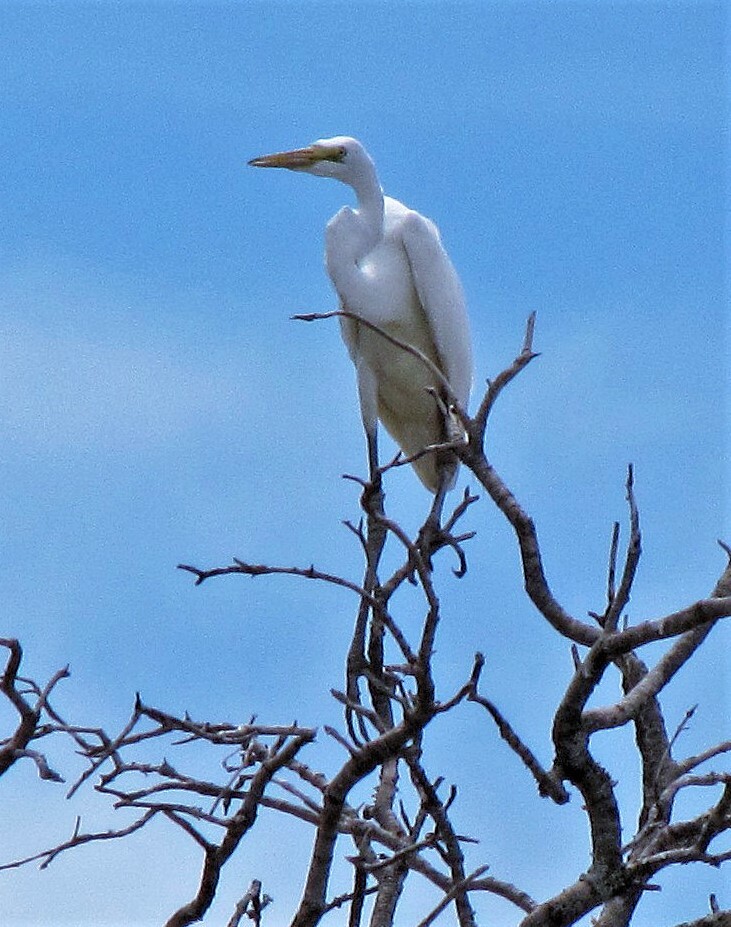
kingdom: Animalia
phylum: Chordata
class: Aves
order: Pelecaniformes
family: Ardeidae
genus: Ardea
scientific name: Ardea alba
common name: Great egret
